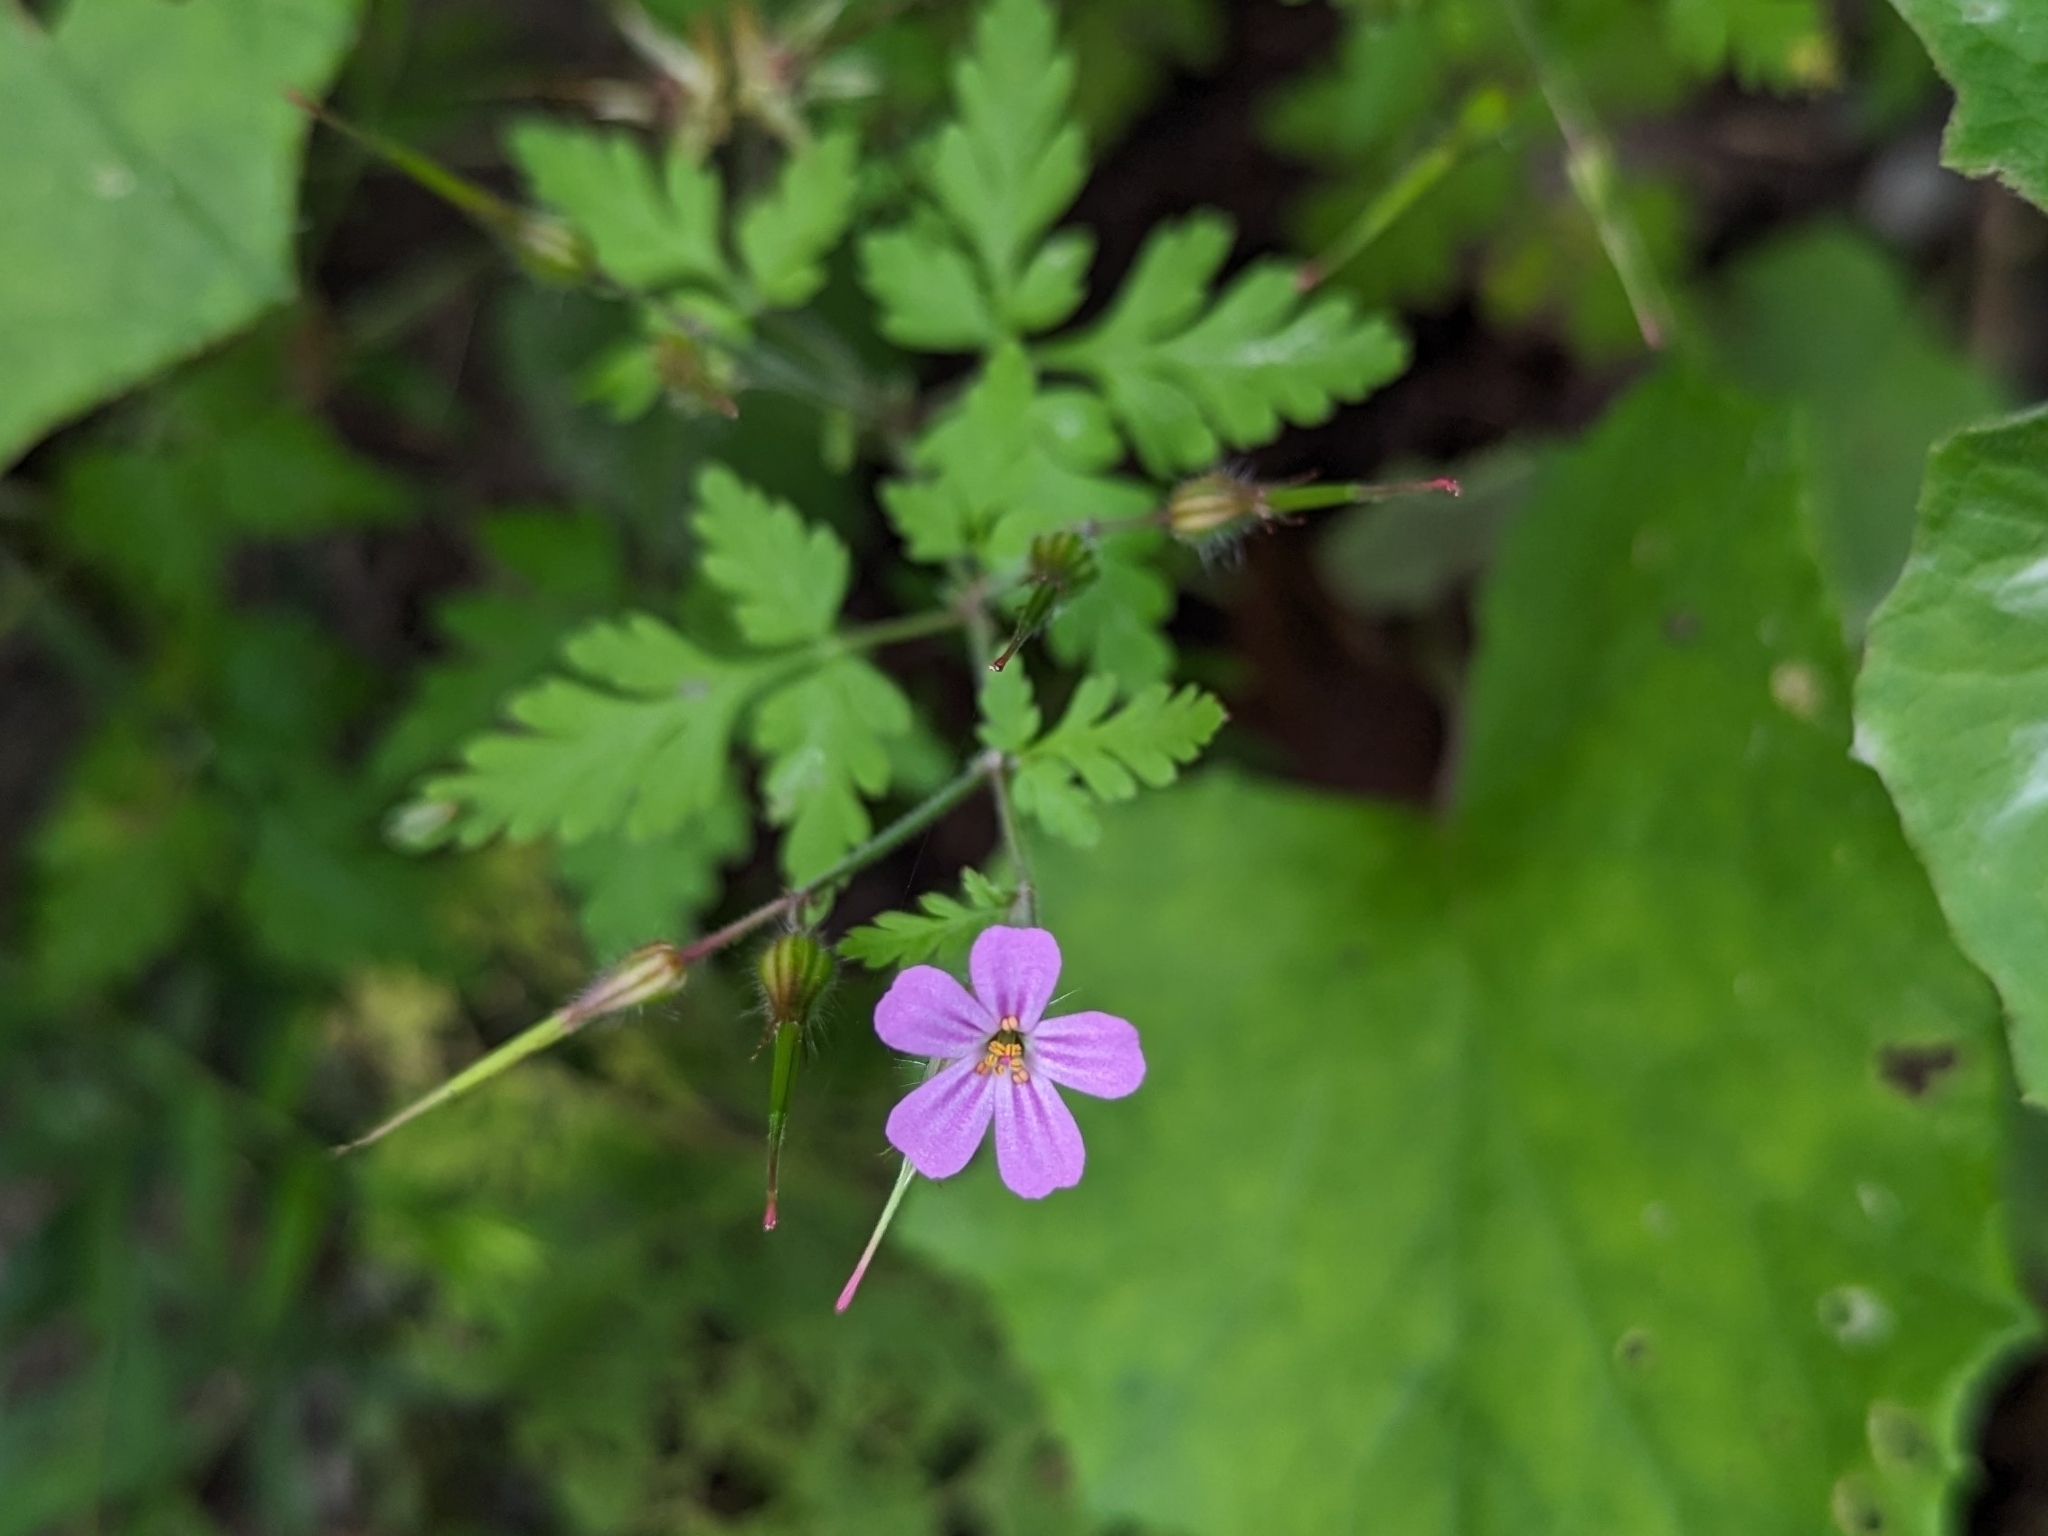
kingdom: Plantae
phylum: Tracheophyta
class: Magnoliopsida
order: Geraniales
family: Geraniaceae
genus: Geranium
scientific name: Geranium robertianum
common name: Herb-robert
